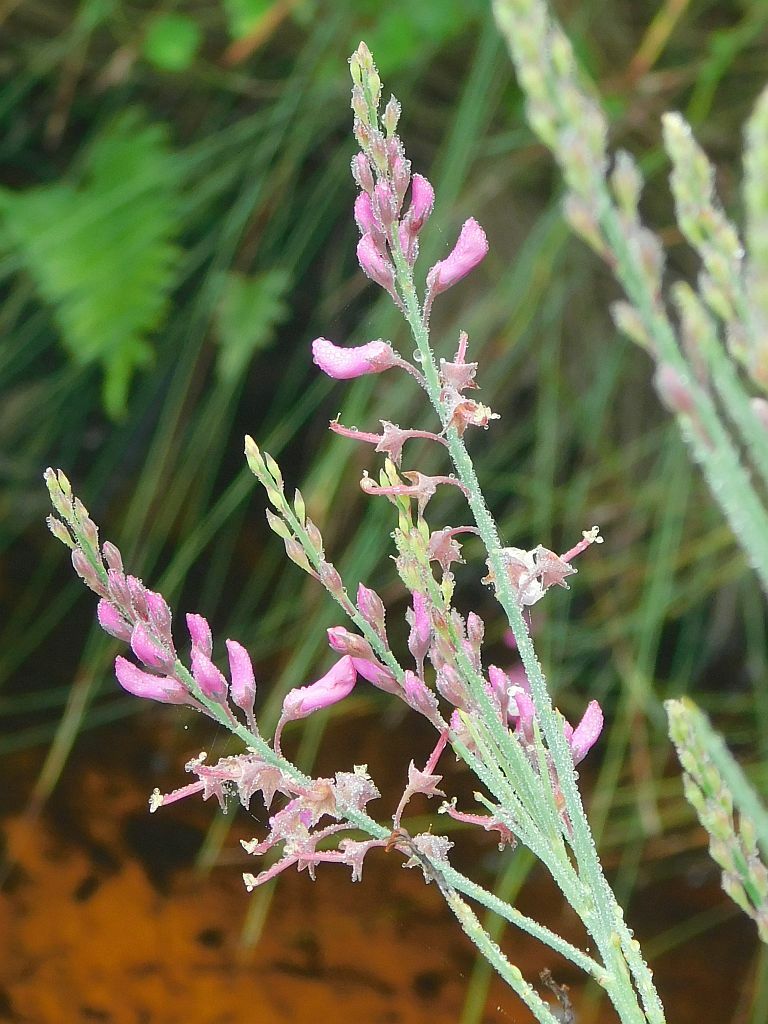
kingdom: Plantae
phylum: Tracheophyta
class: Magnoliopsida
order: Fabales
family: Fabaceae
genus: Indigofera
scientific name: Indigofera filifolia
